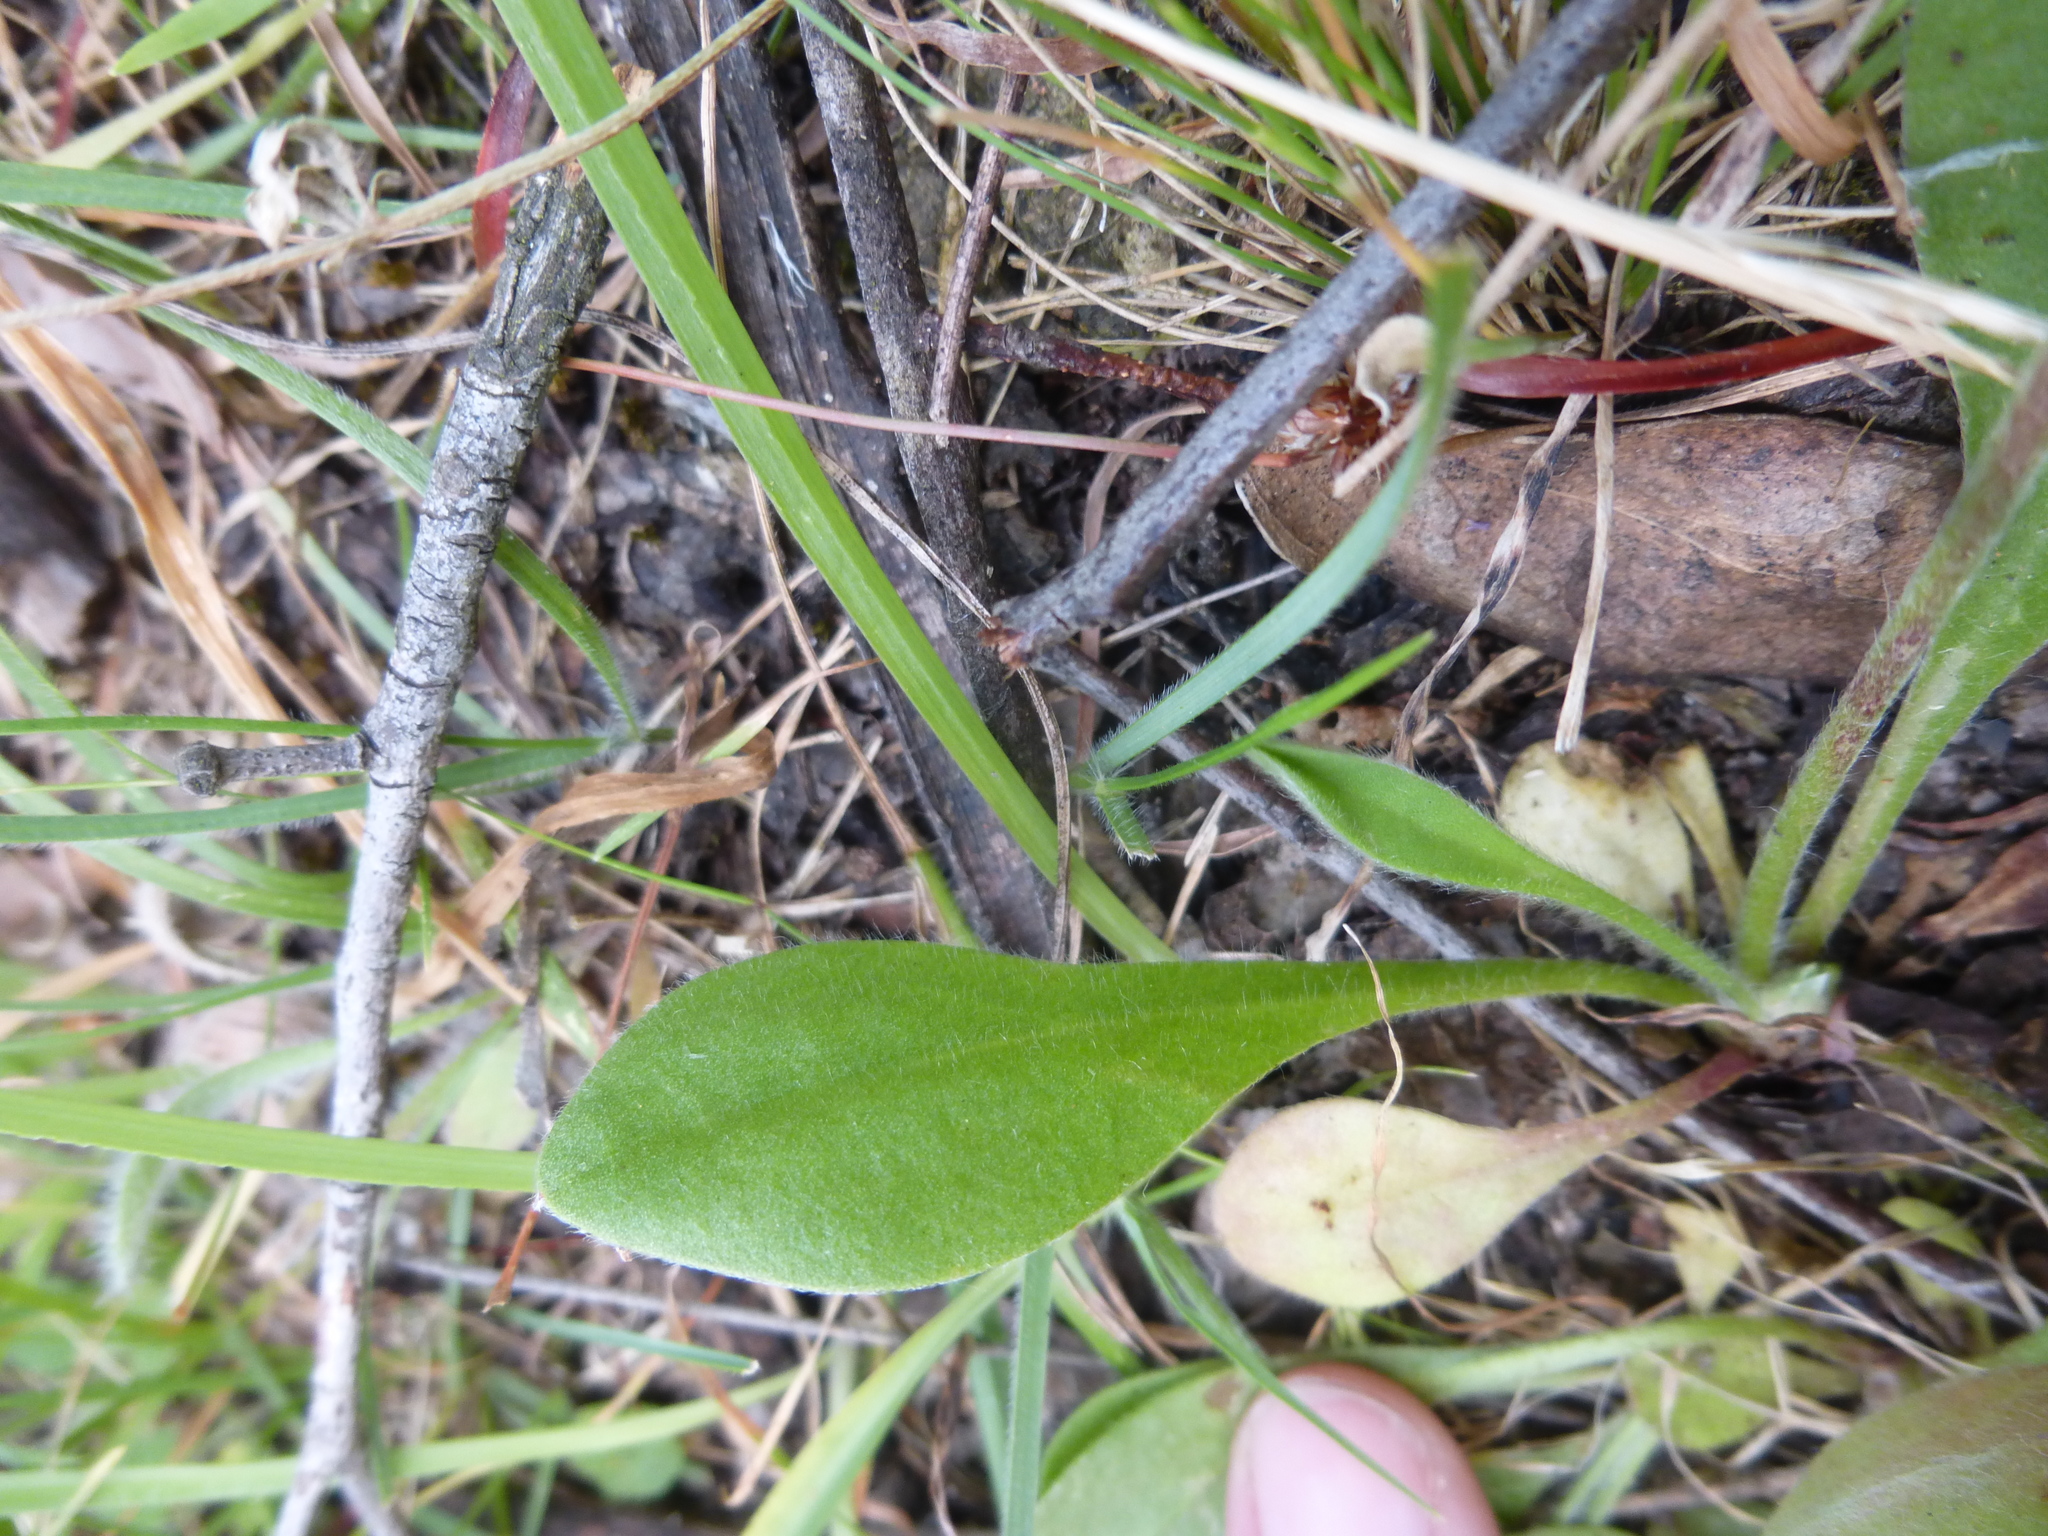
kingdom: Plantae
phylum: Tracheophyta
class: Magnoliopsida
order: Asterales
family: Goodeniaceae
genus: Brunonia
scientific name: Brunonia australis
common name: Blue pincushion
